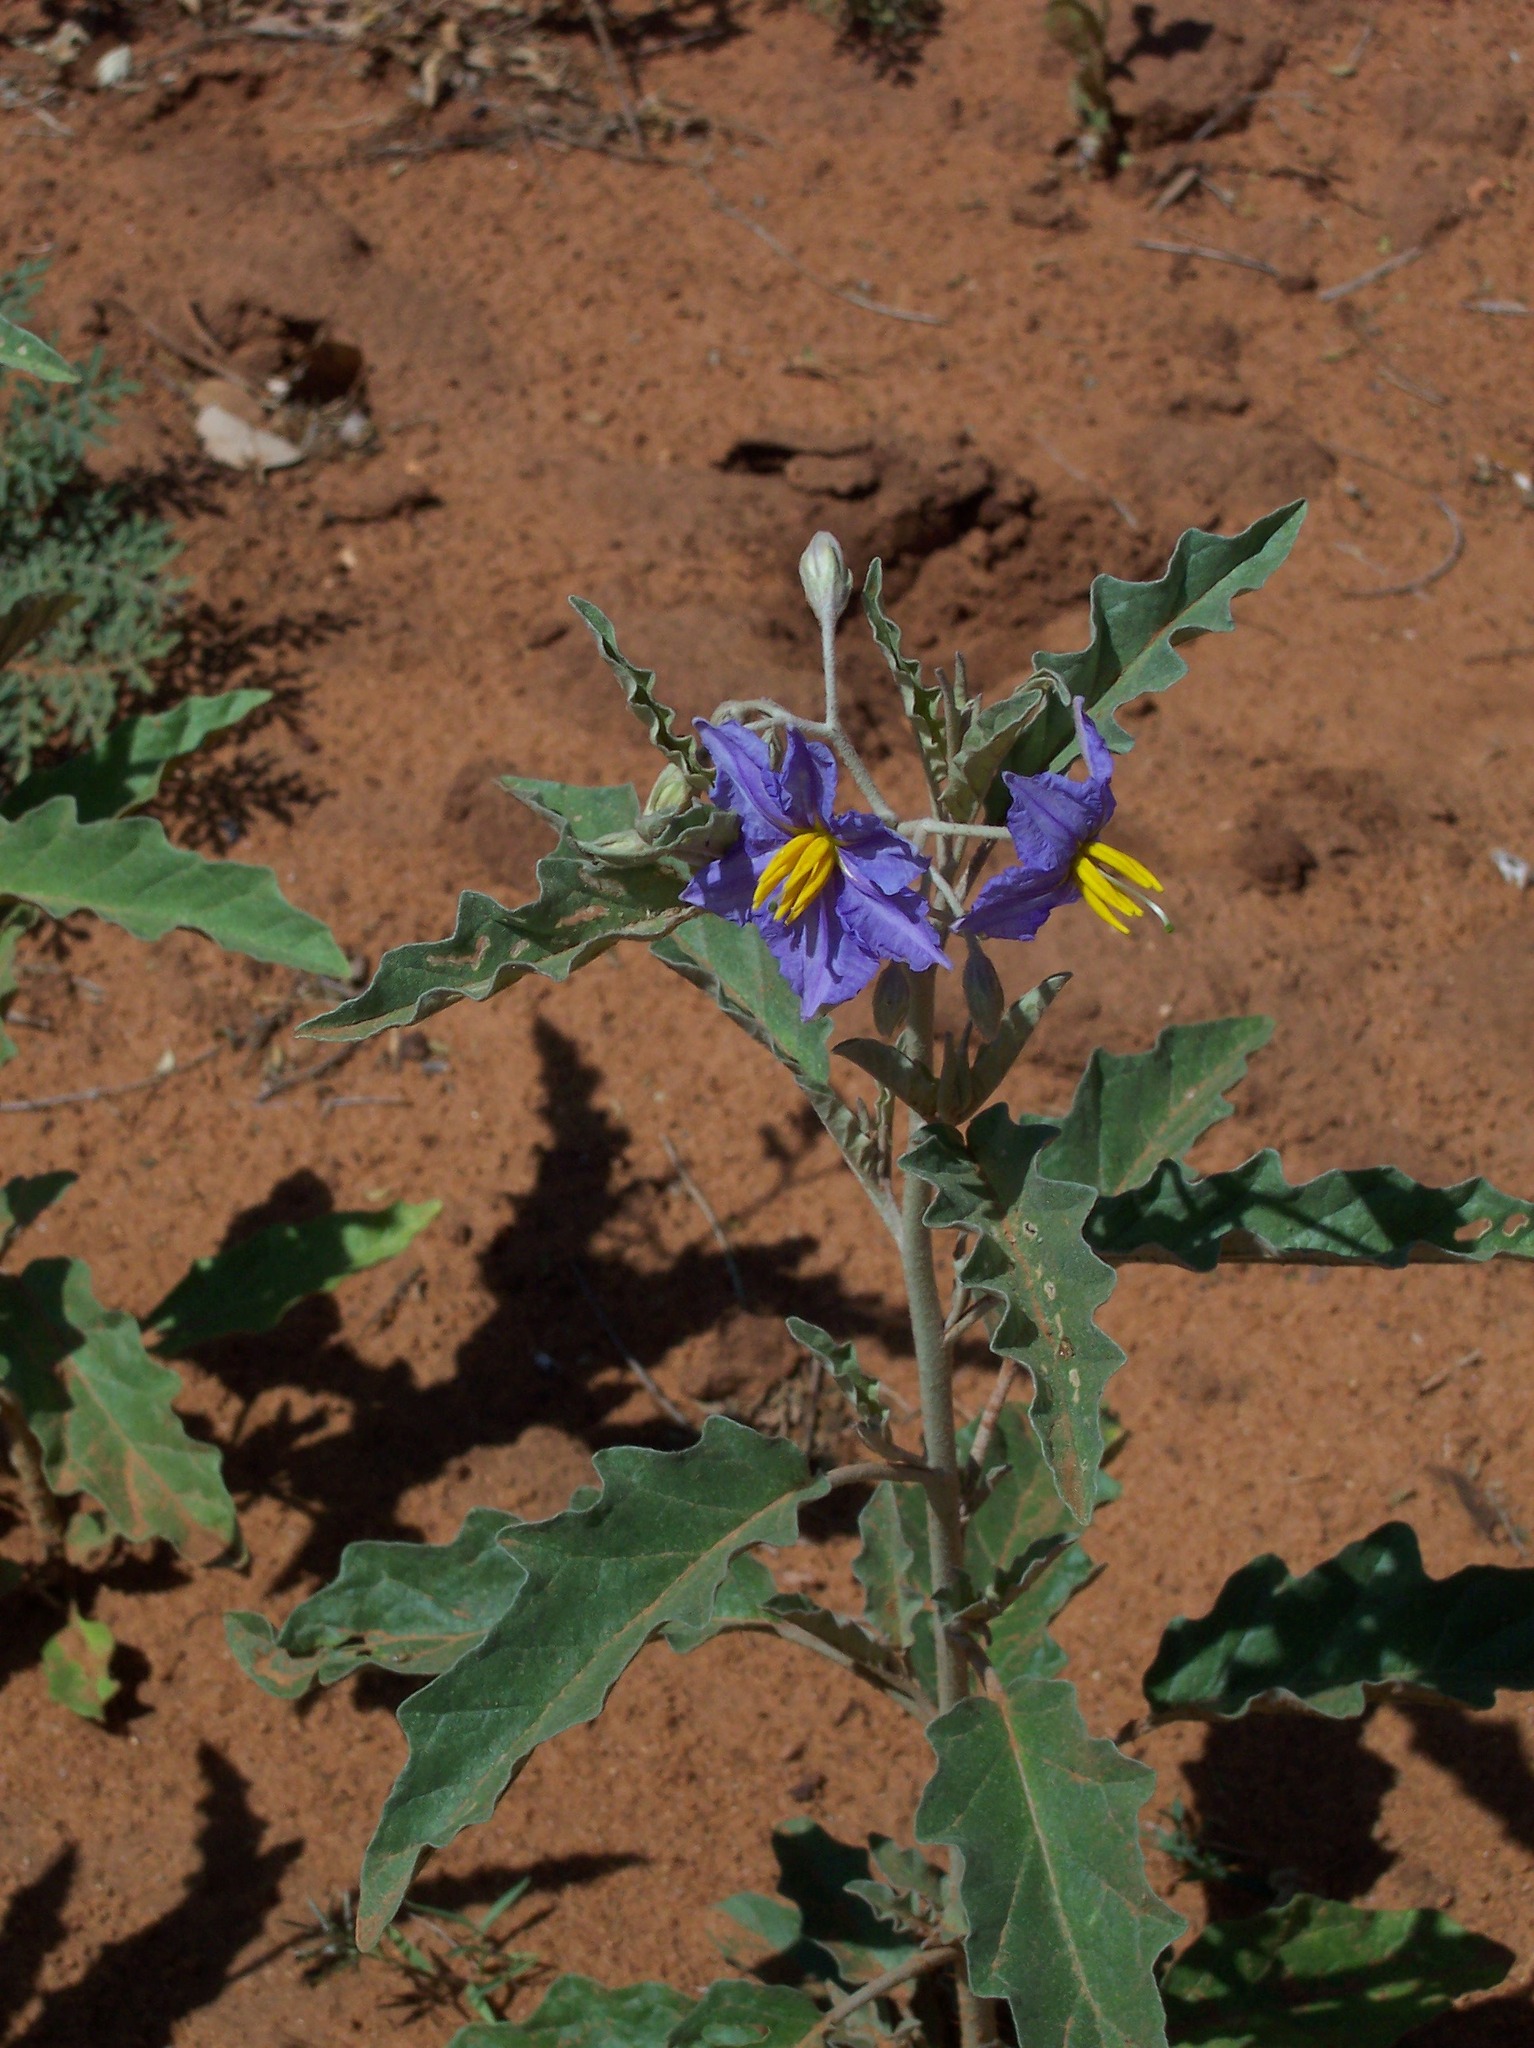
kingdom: Plantae
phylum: Tracheophyta
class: Magnoliopsida
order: Solanales
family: Solanaceae
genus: Solanum
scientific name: Solanum elaeagnifolium
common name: Silverleaf nightshade
